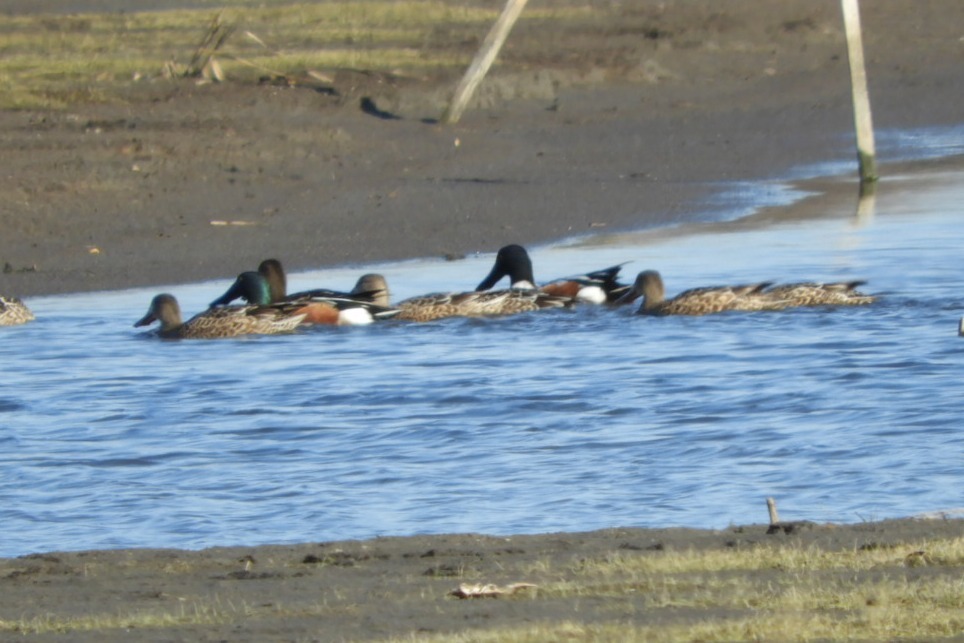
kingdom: Animalia
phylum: Chordata
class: Aves
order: Anseriformes
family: Anatidae
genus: Spatula
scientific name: Spatula clypeata
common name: Northern shoveler
